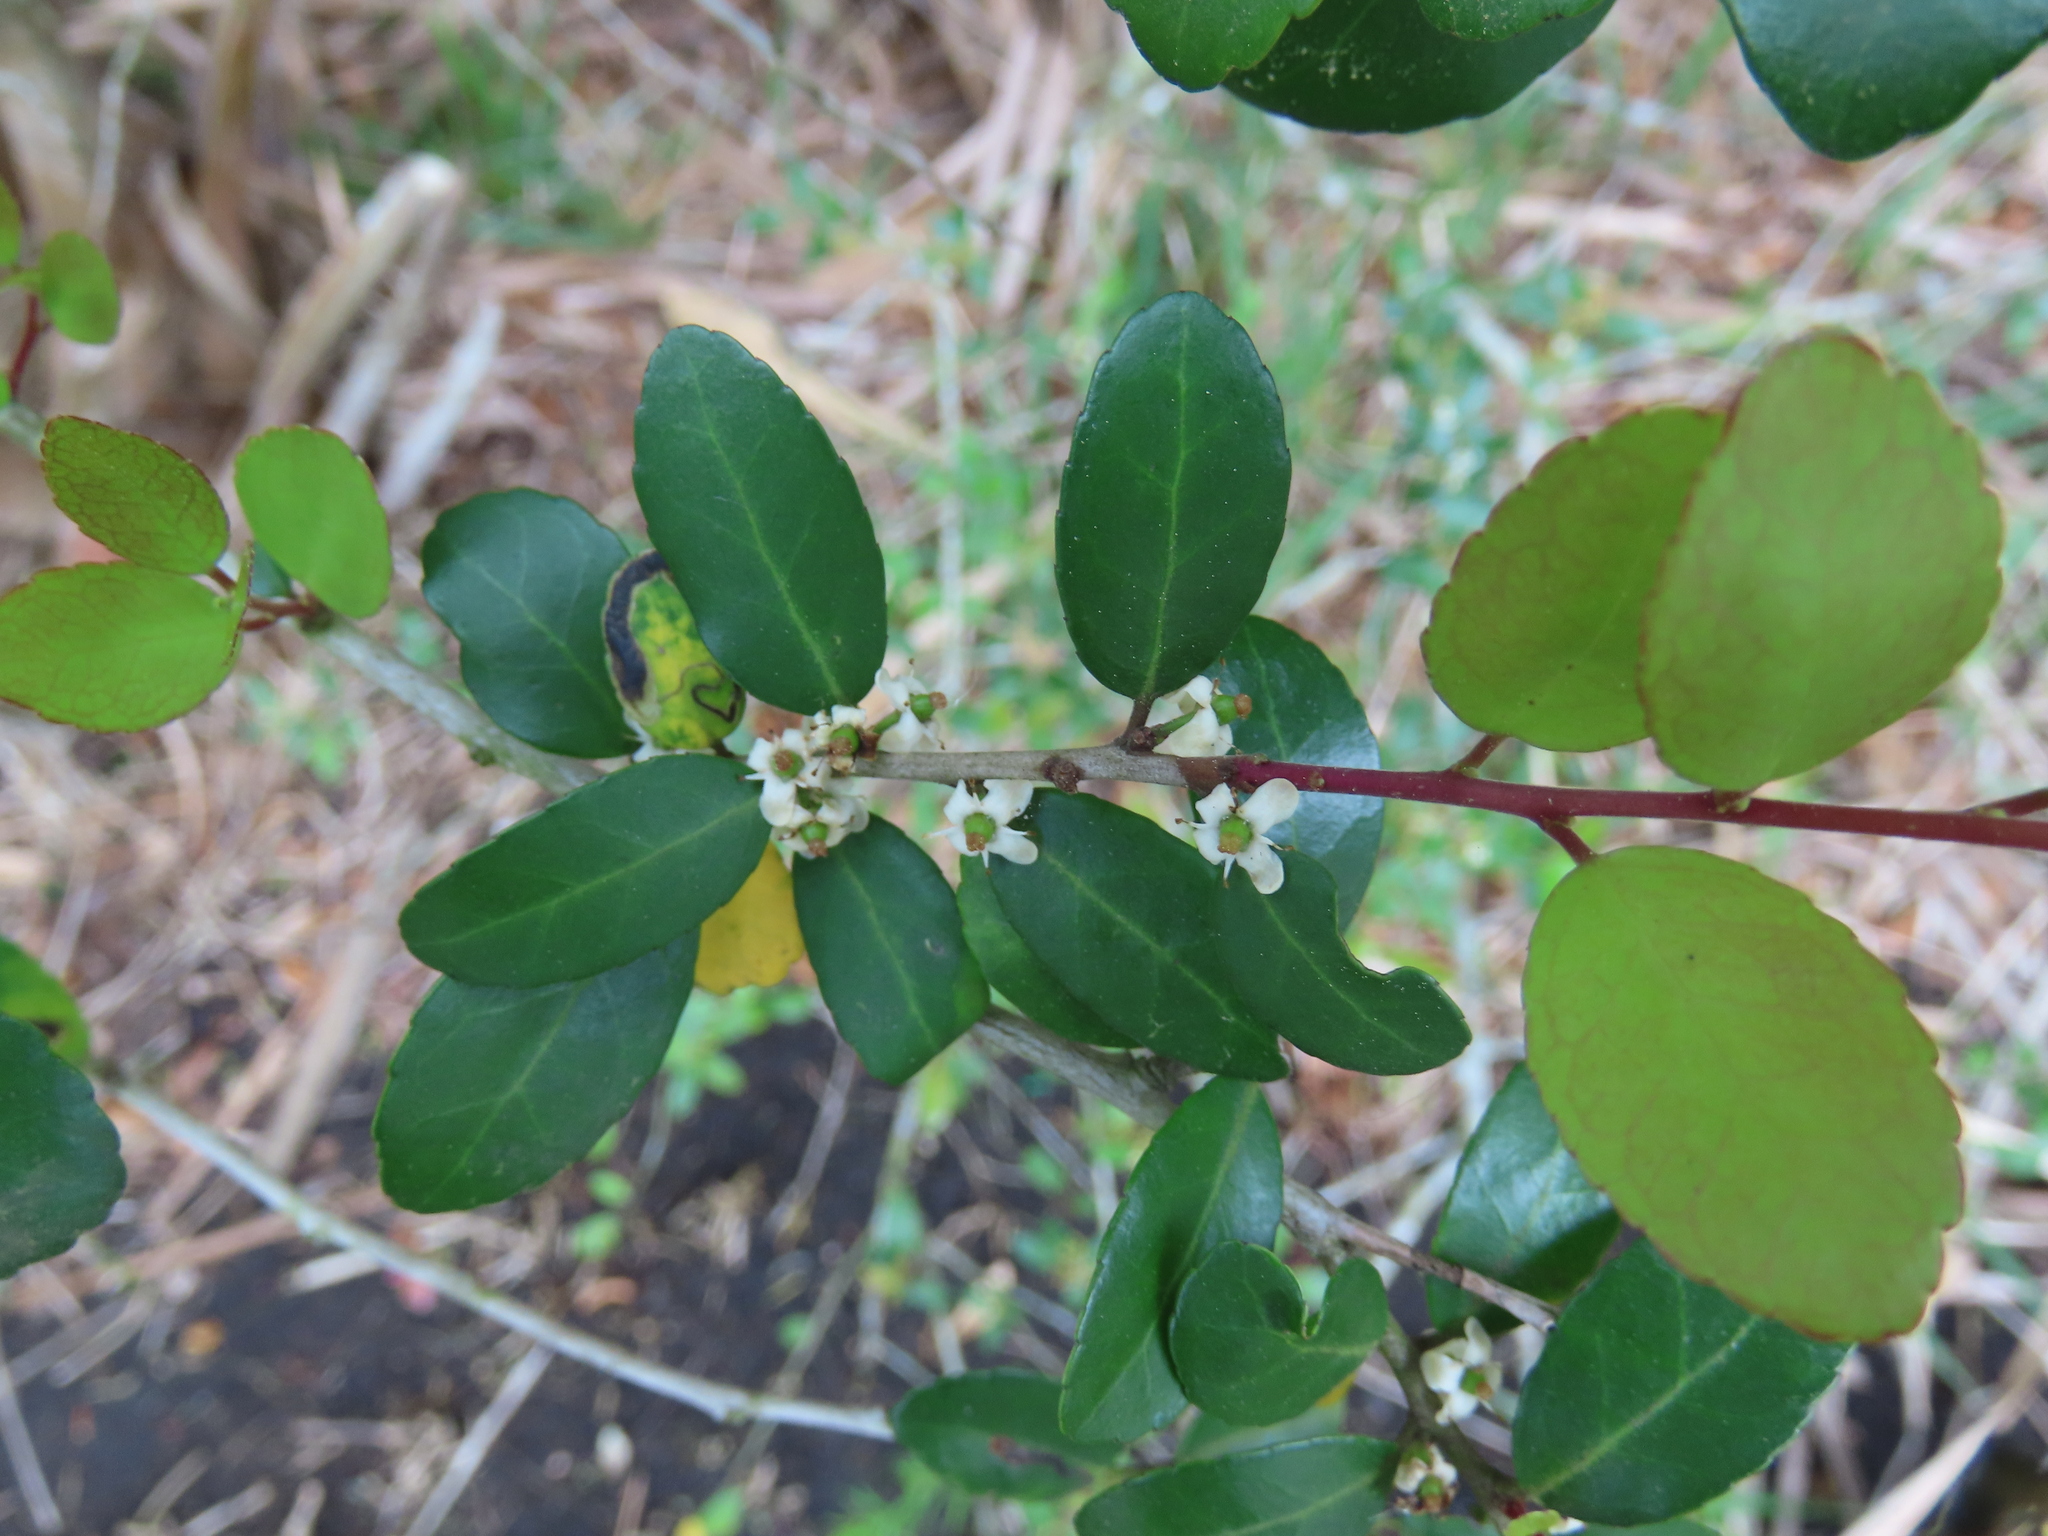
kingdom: Plantae
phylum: Tracheophyta
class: Magnoliopsida
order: Aquifoliales
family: Aquifoliaceae
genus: Ilex
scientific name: Ilex vomitoria
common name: Yaupon holly
